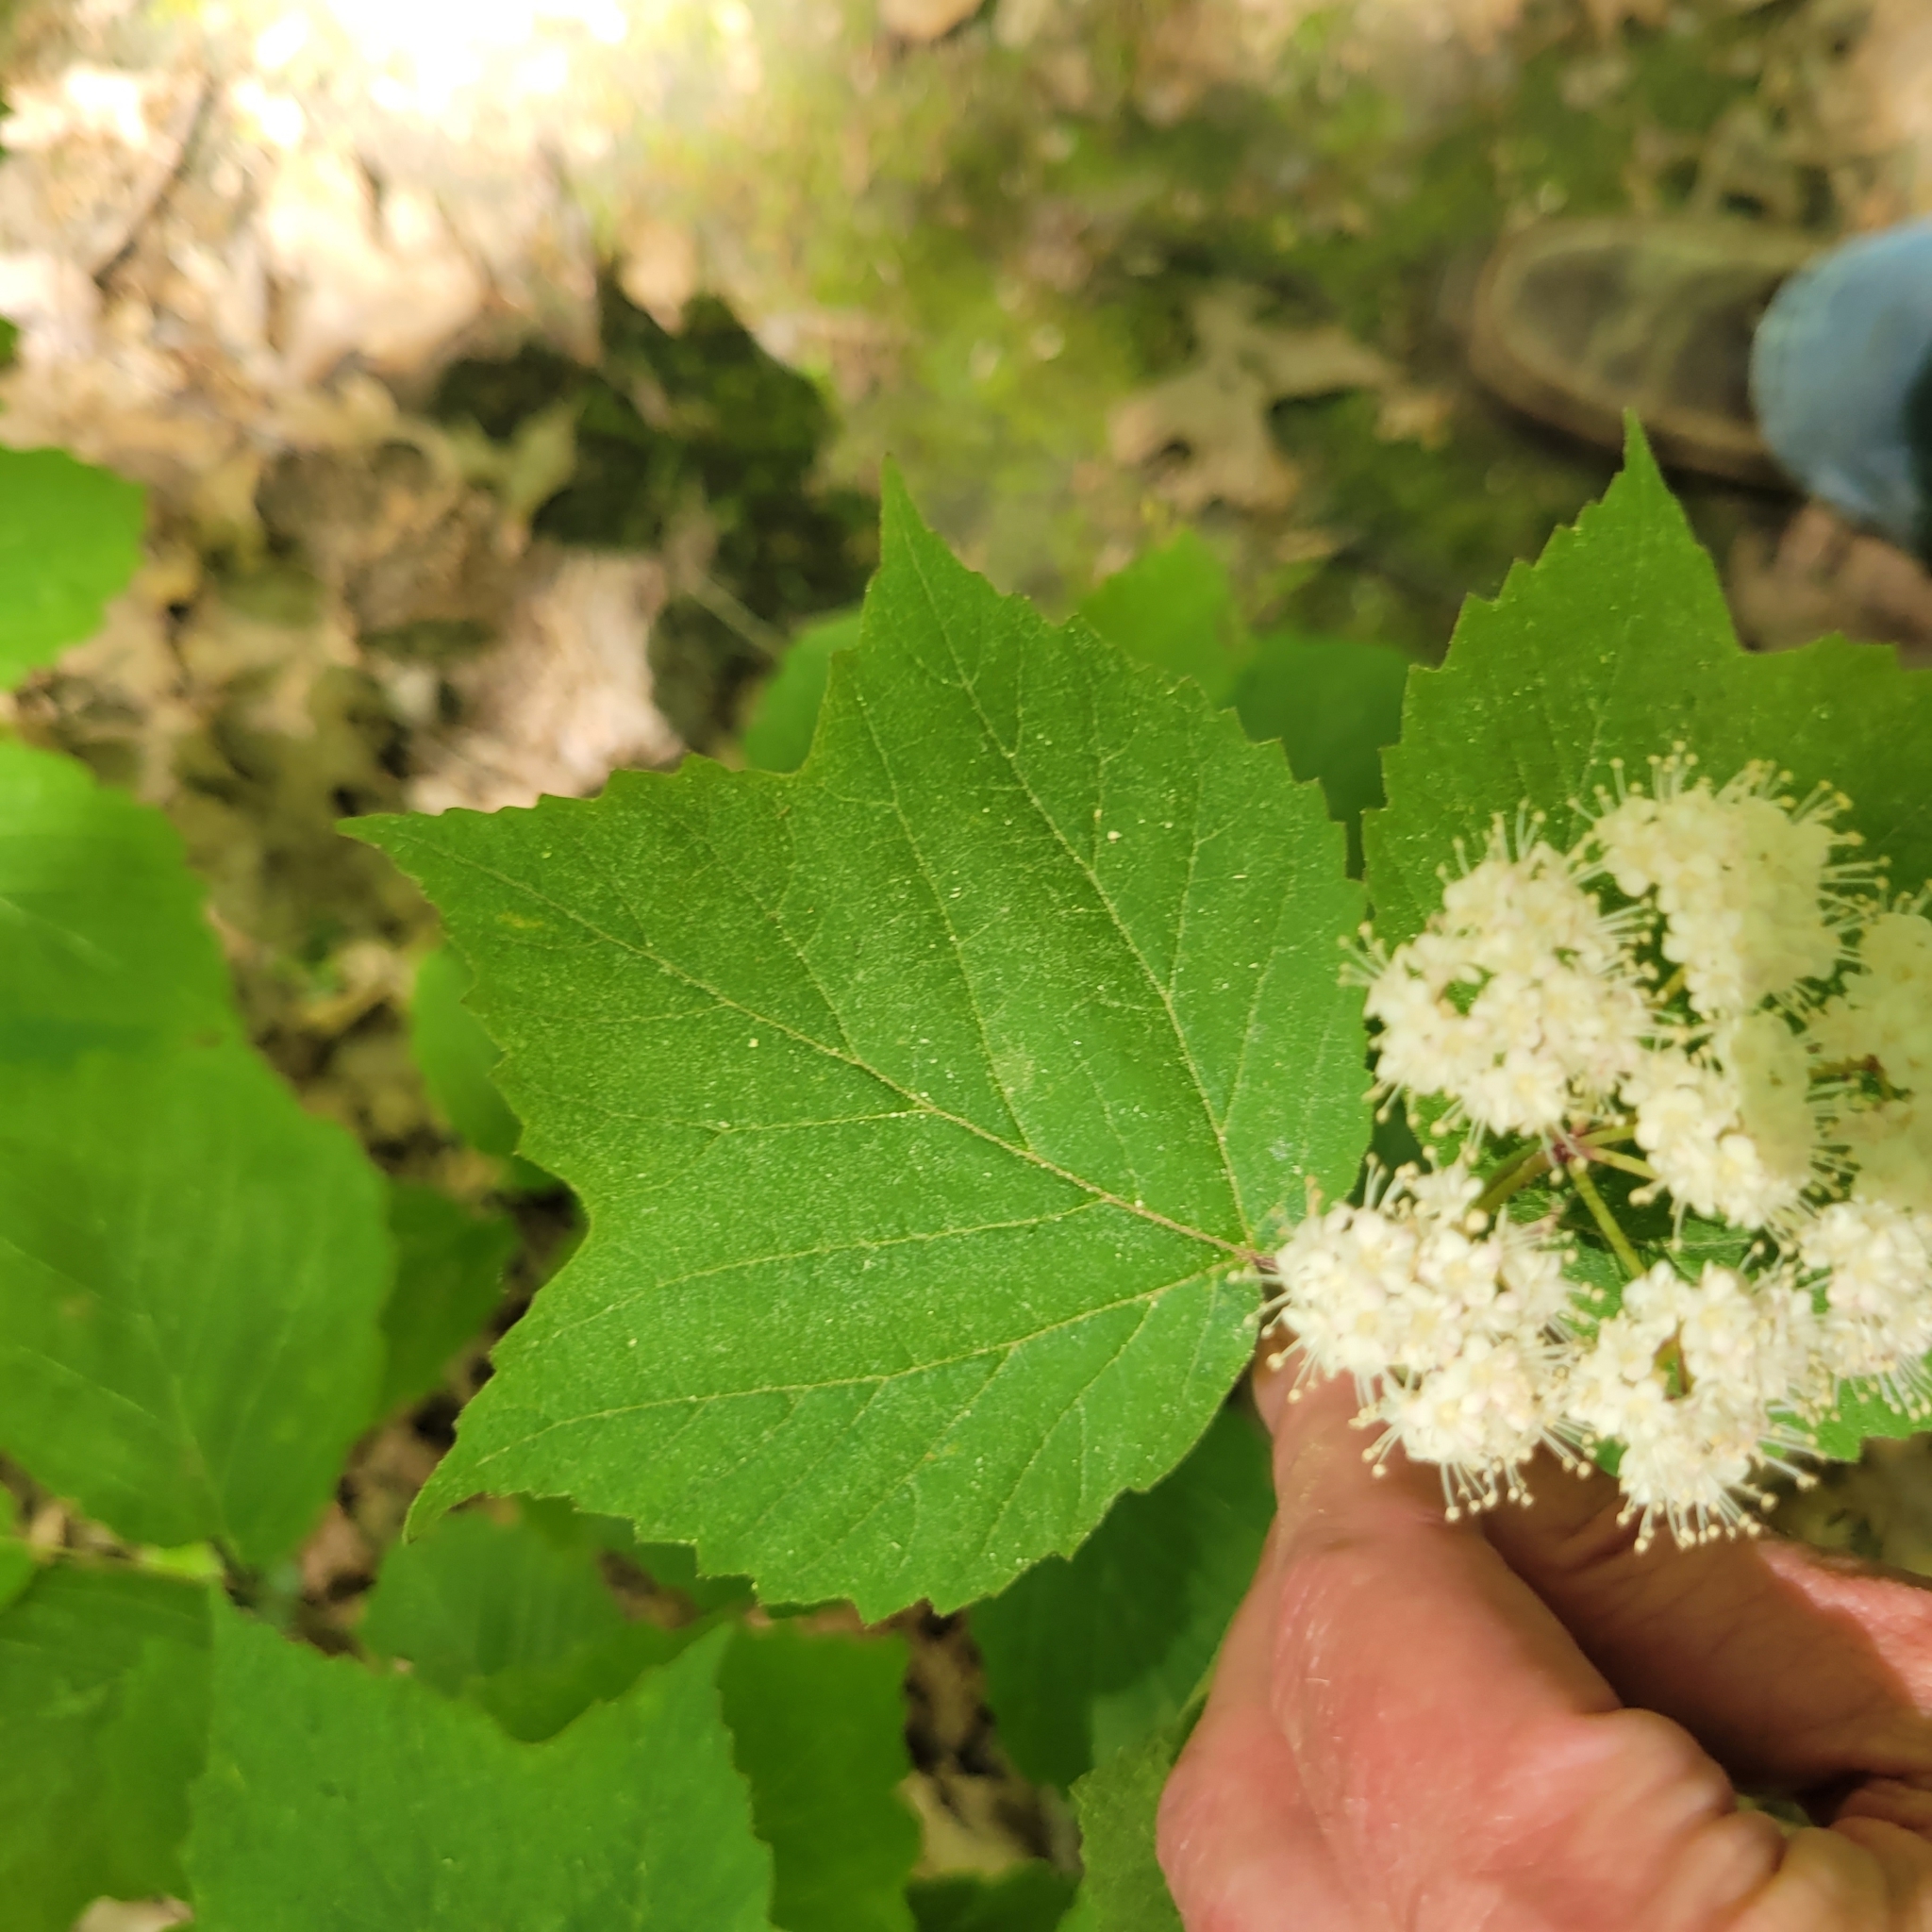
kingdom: Plantae
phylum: Tracheophyta
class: Magnoliopsida
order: Dipsacales
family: Viburnaceae
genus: Viburnum
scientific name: Viburnum acerifolium
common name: Dockmackie
